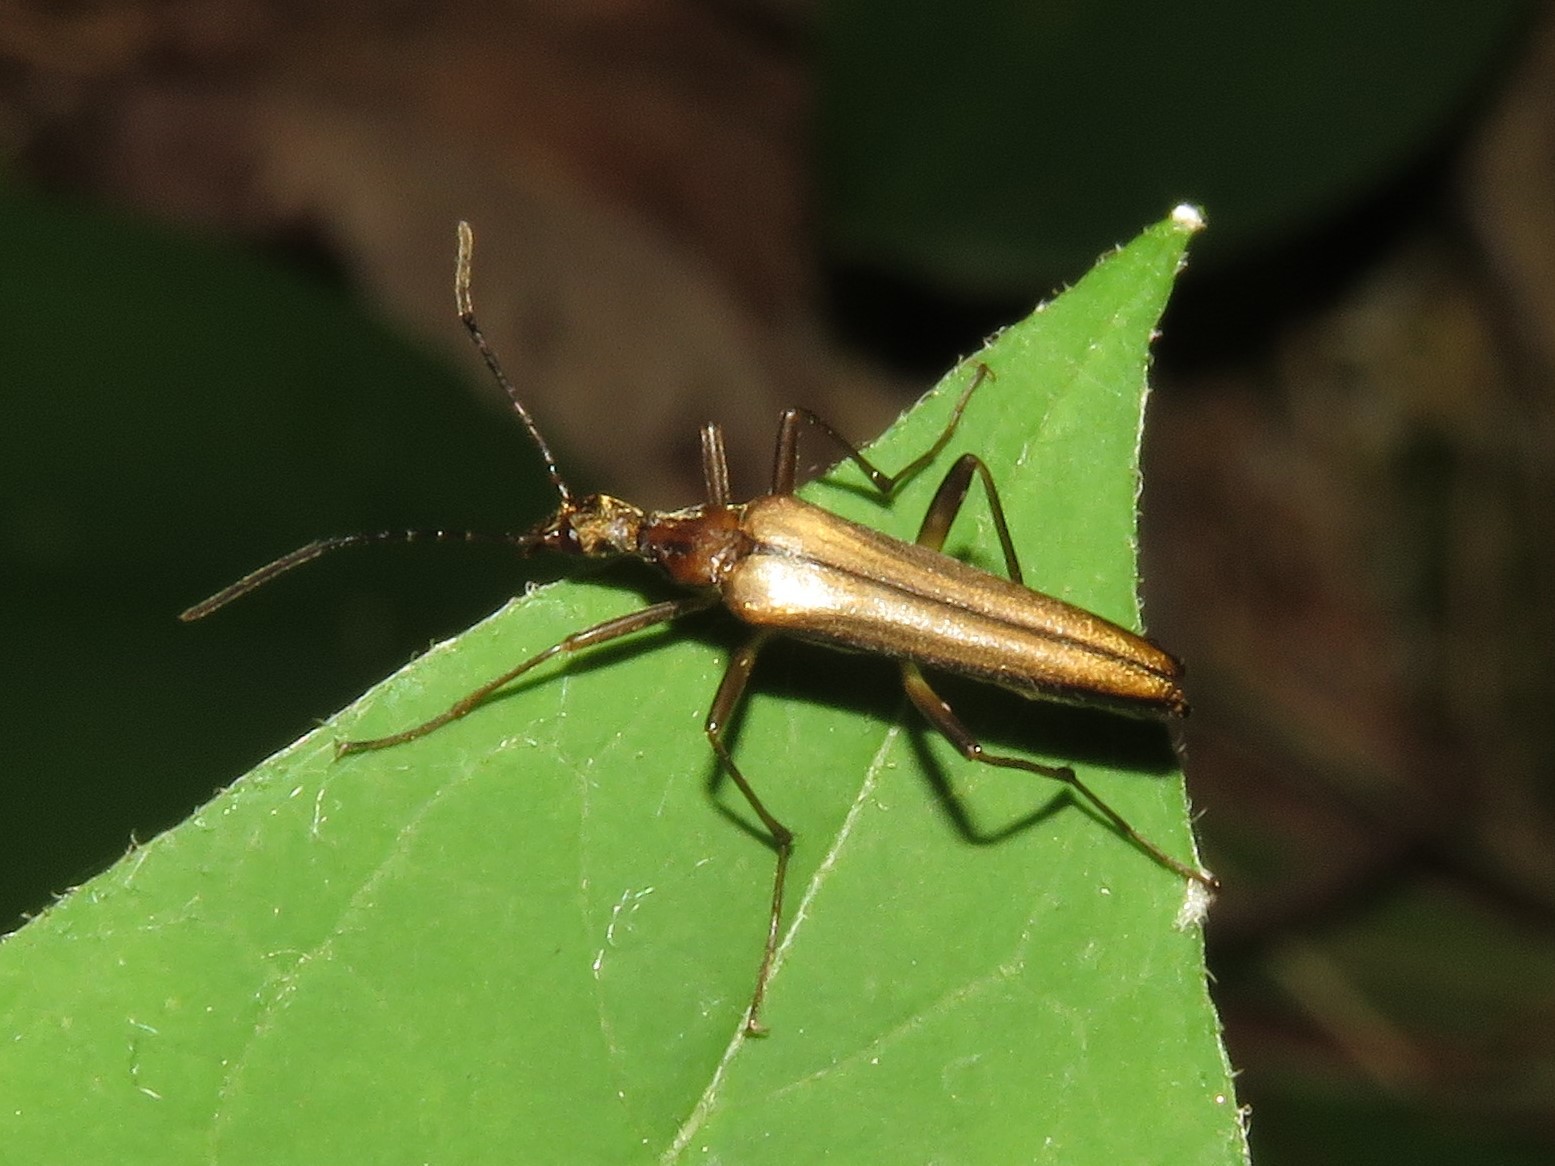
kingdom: Animalia
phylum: Arthropoda
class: Insecta
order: Coleoptera
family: Stenotrachelidae
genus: Cephaloon
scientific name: Cephaloon ungulare
